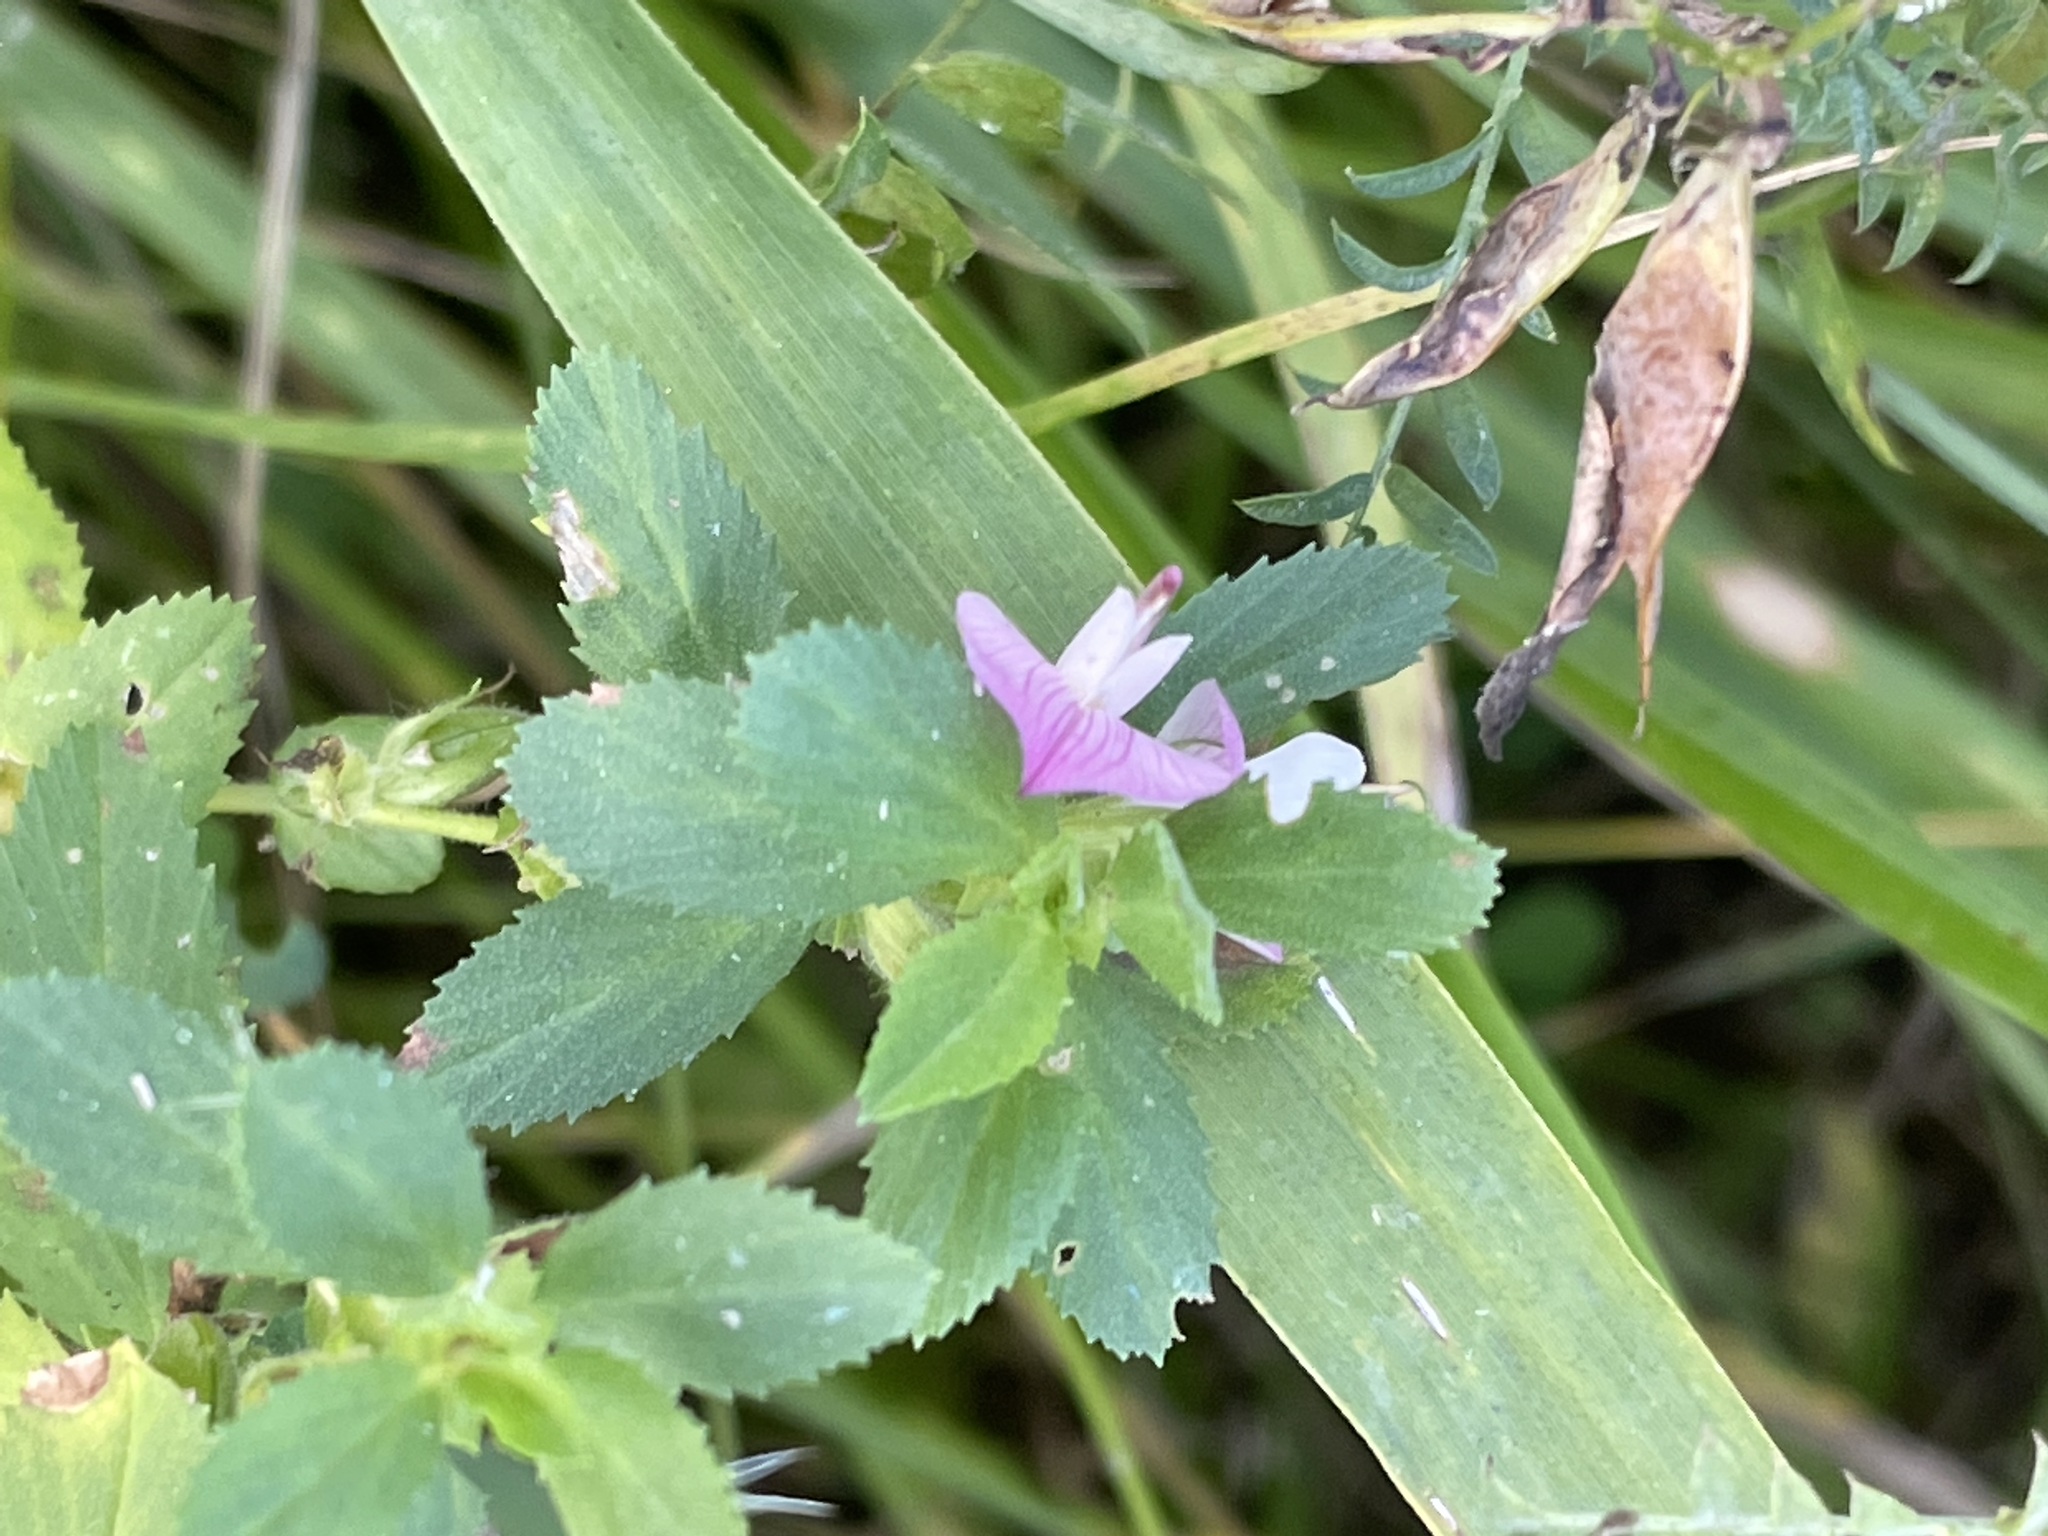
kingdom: Plantae
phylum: Tracheophyta
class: Magnoliopsida
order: Fabales
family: Fabaceae
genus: Ononis
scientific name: Ononis arvensis
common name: Field restharrow
